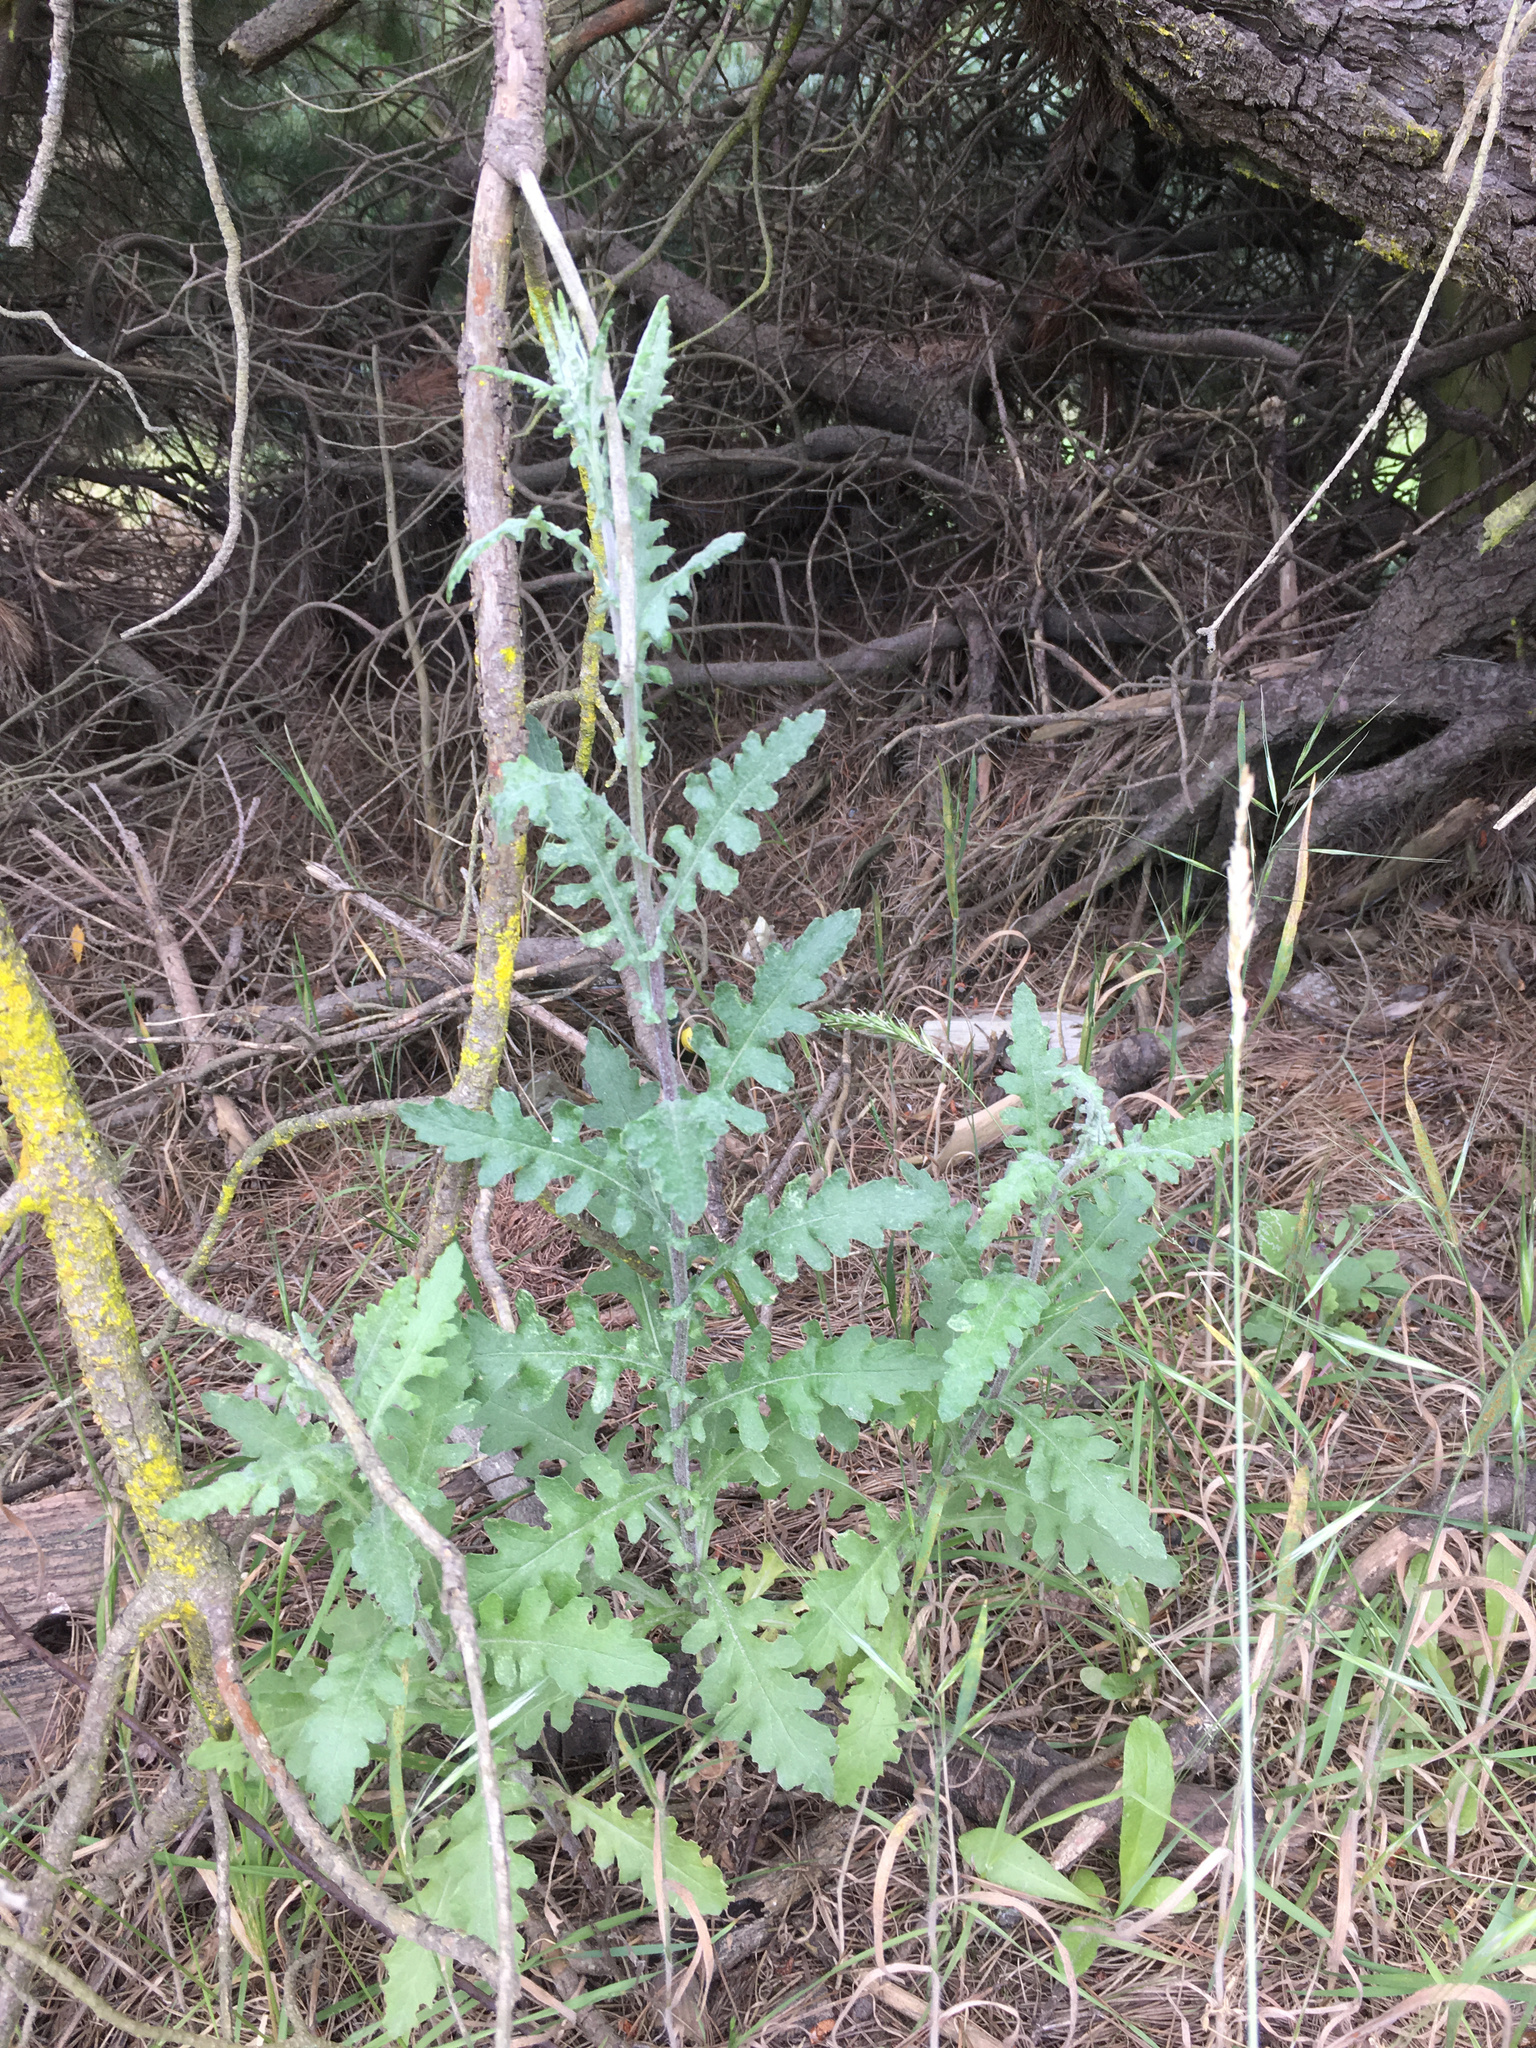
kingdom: Plantae
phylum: Tracheophyta
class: Magnoliopsida
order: Asterales
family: Asteraceae
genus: Senecio
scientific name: Senecio glomeratus
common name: Cutleaf burnweed
